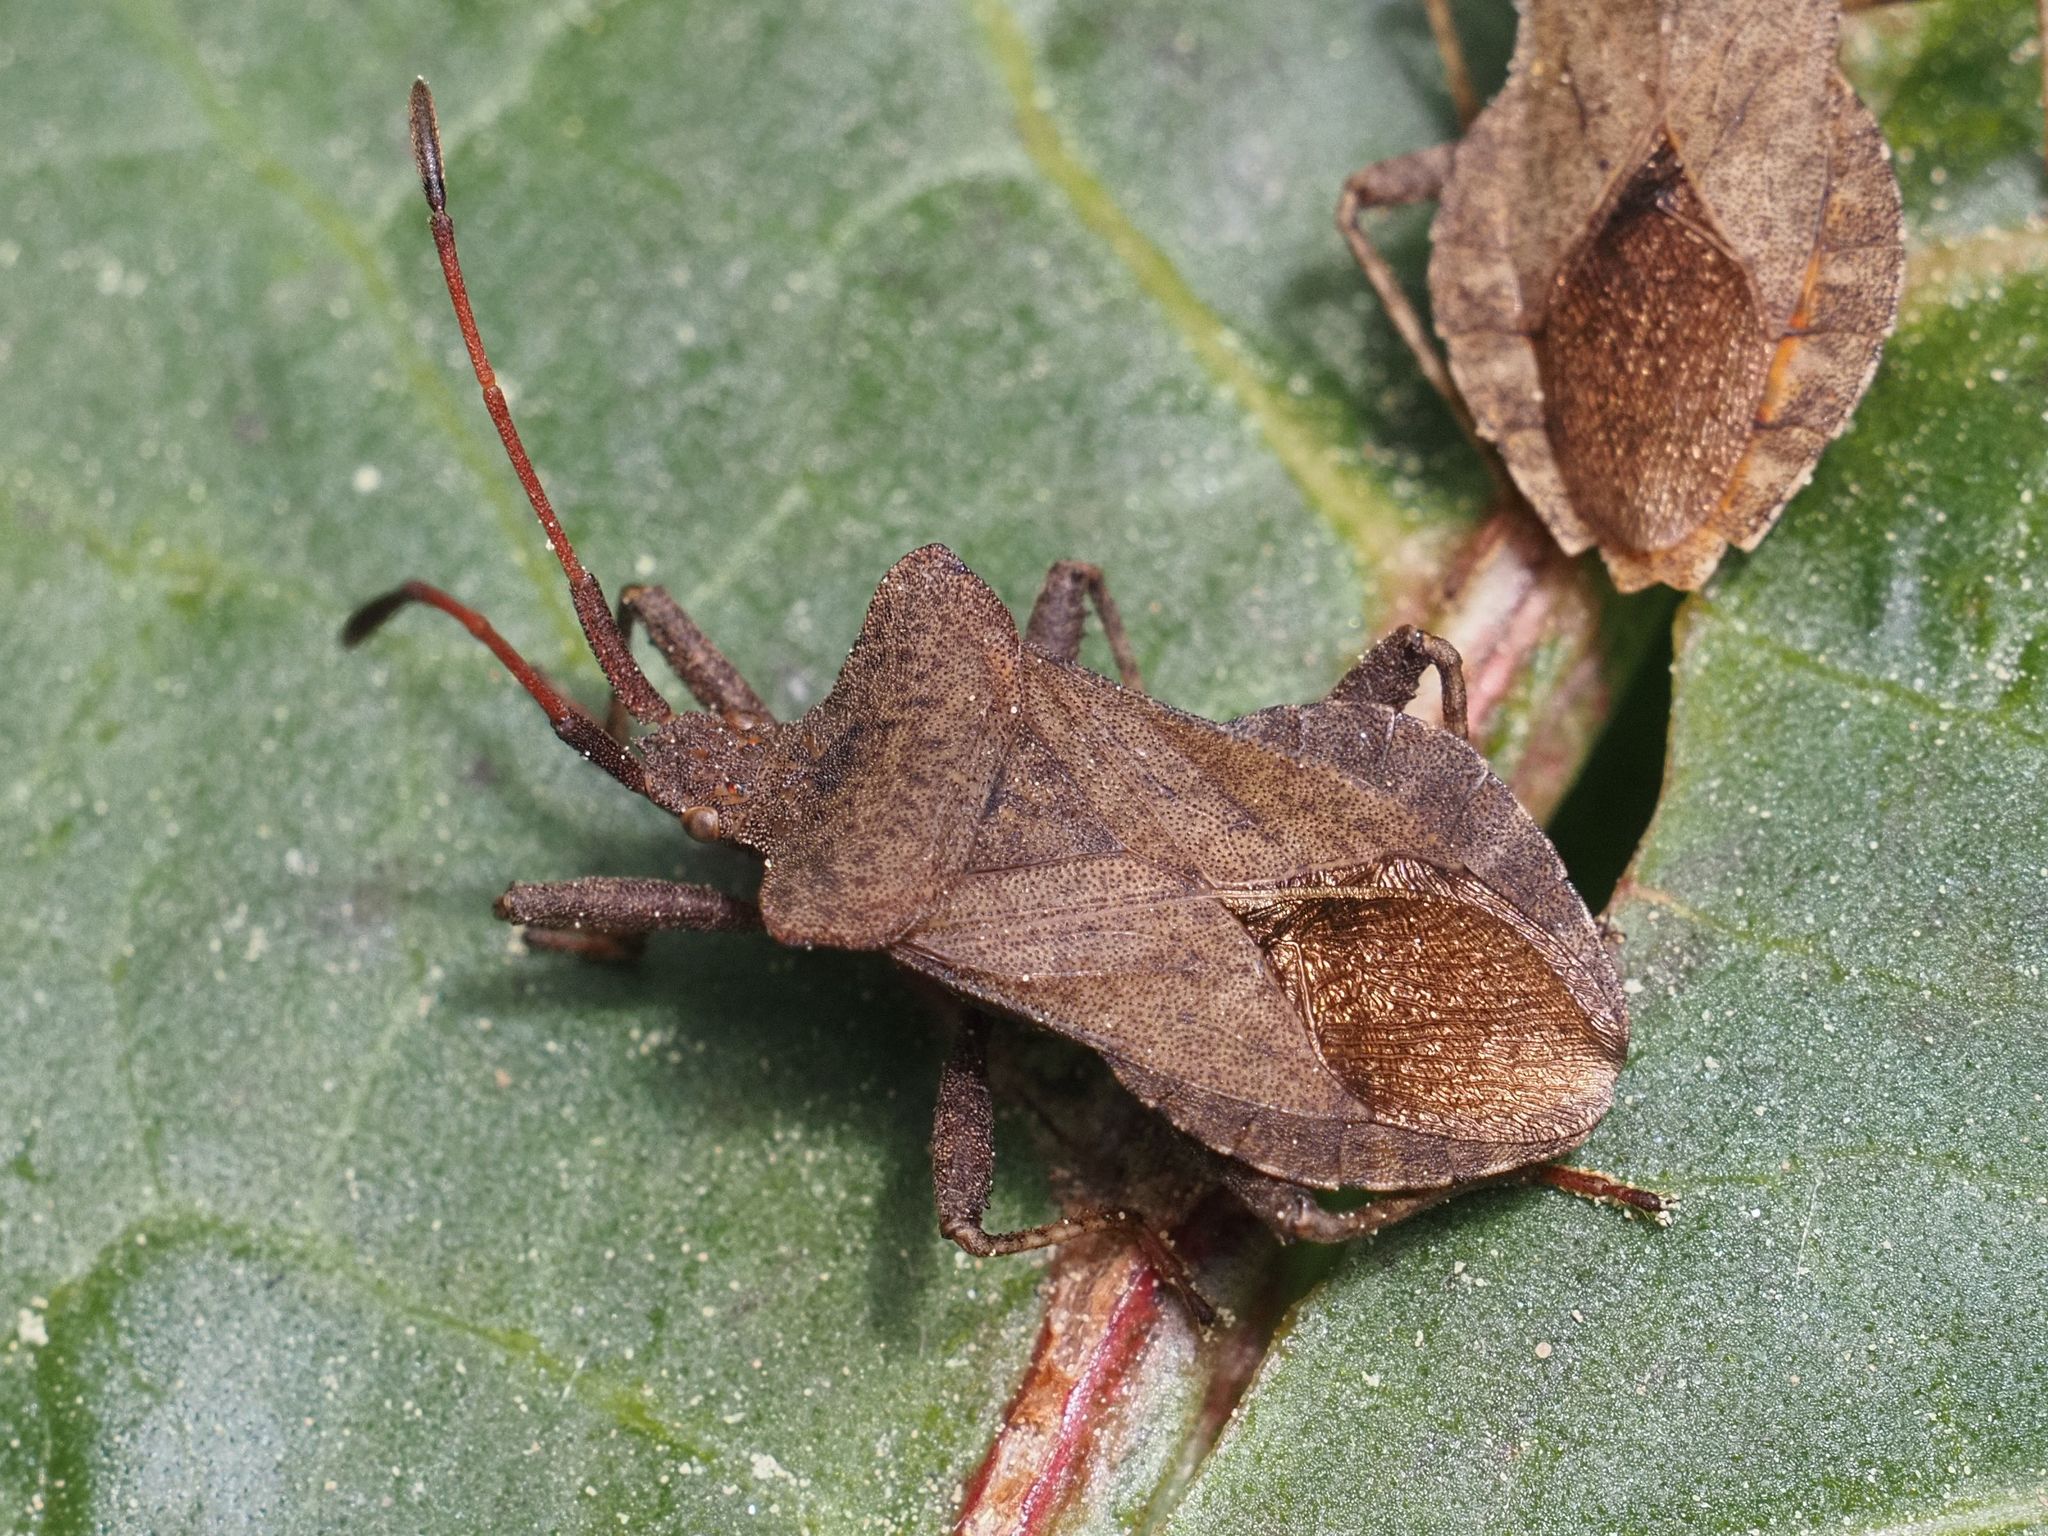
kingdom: Animalia
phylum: Arthropoda
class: Insecta
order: Hemiptera
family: Coreidae
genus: Coreus
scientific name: Coreus marginatus
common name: Dock bug
